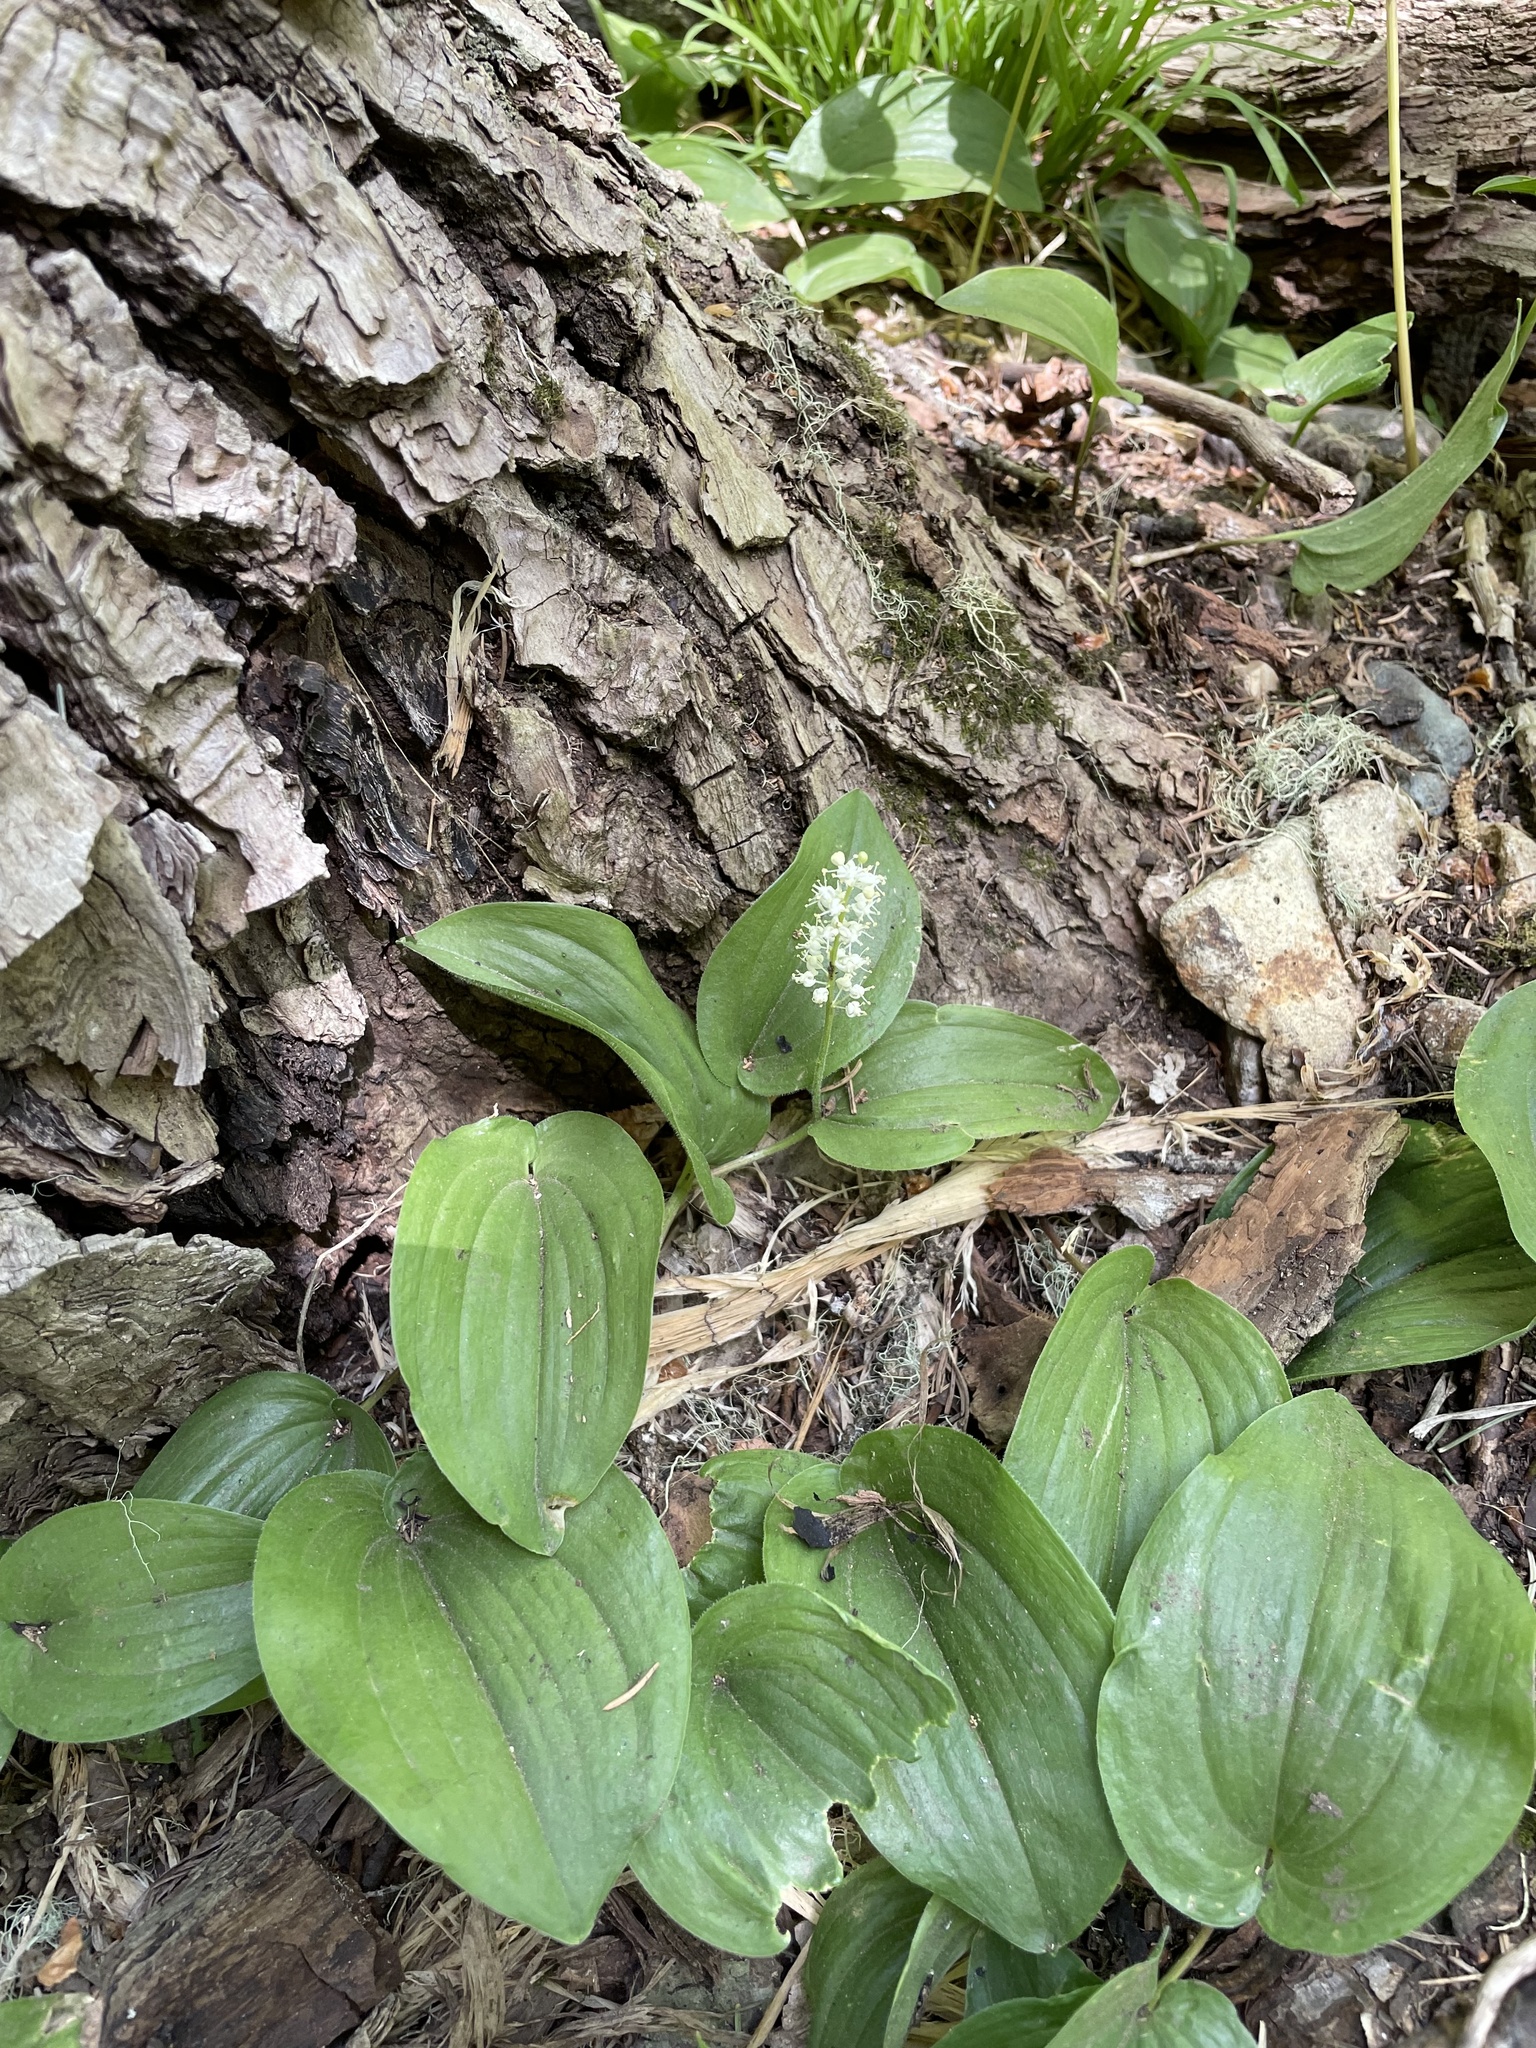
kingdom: Plantae
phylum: Tracheophyta
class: Liliopsida
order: Asparagales
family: Asparagaceae
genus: Maianthemum
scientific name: Maianthemum canadense
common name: False lily-of-the-valley
